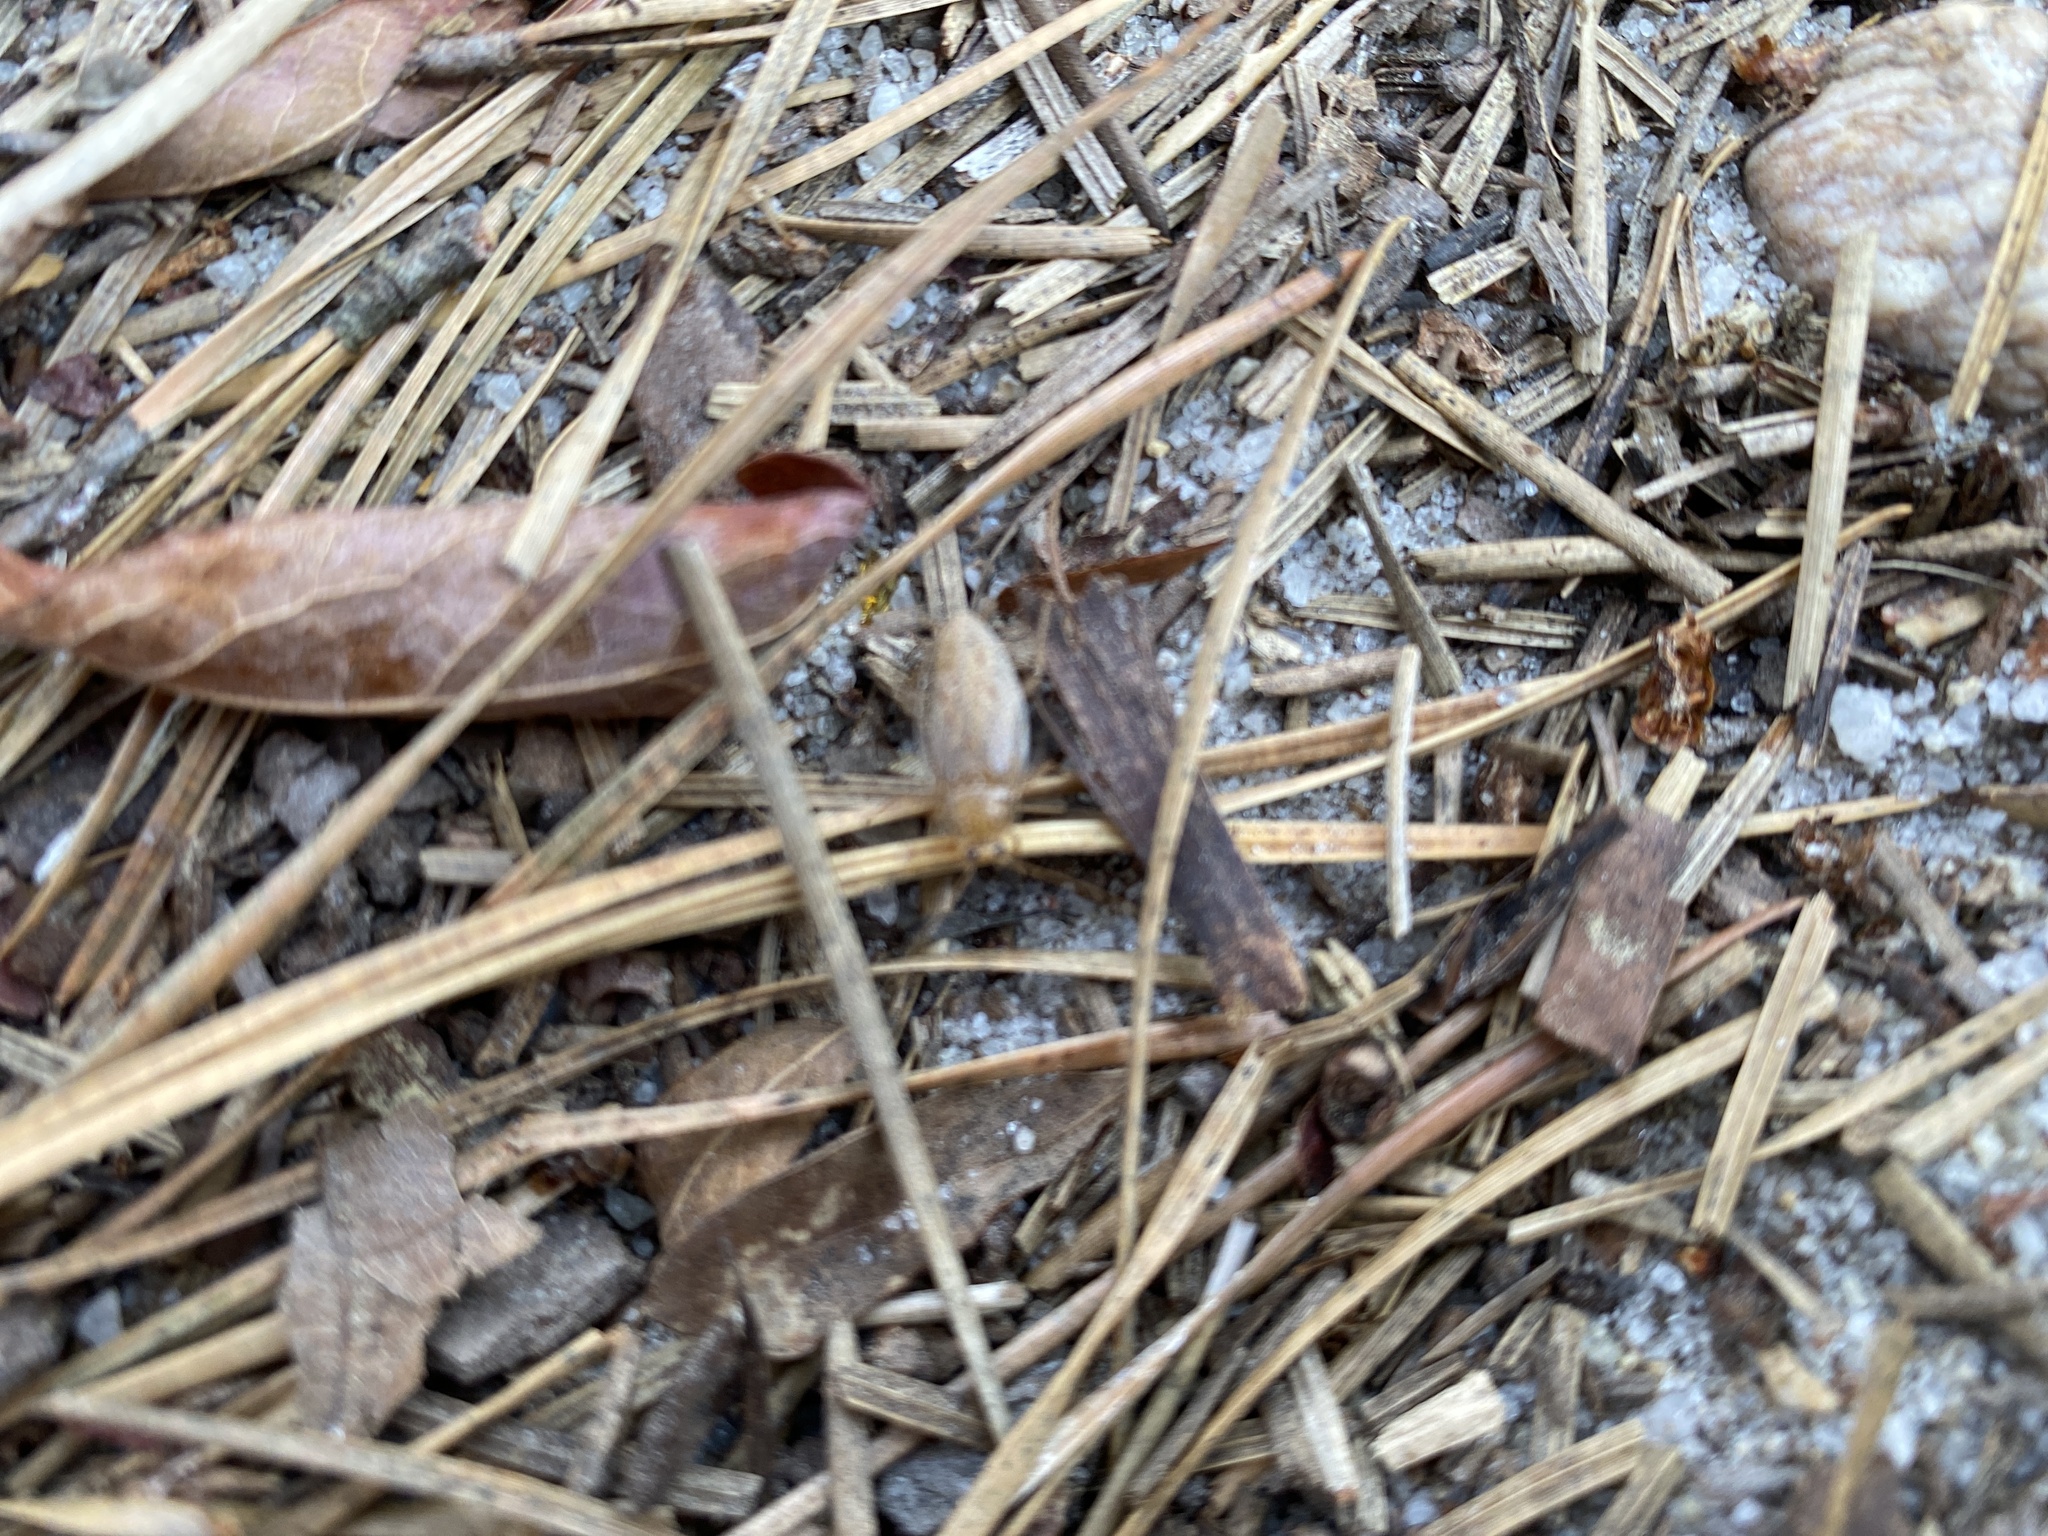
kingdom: Animalia
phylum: Arthropoda
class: Insecta
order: Blattodea
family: Ectobiidae
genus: Ectobius
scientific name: Ectobius pallidus
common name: Tawny cockroach
